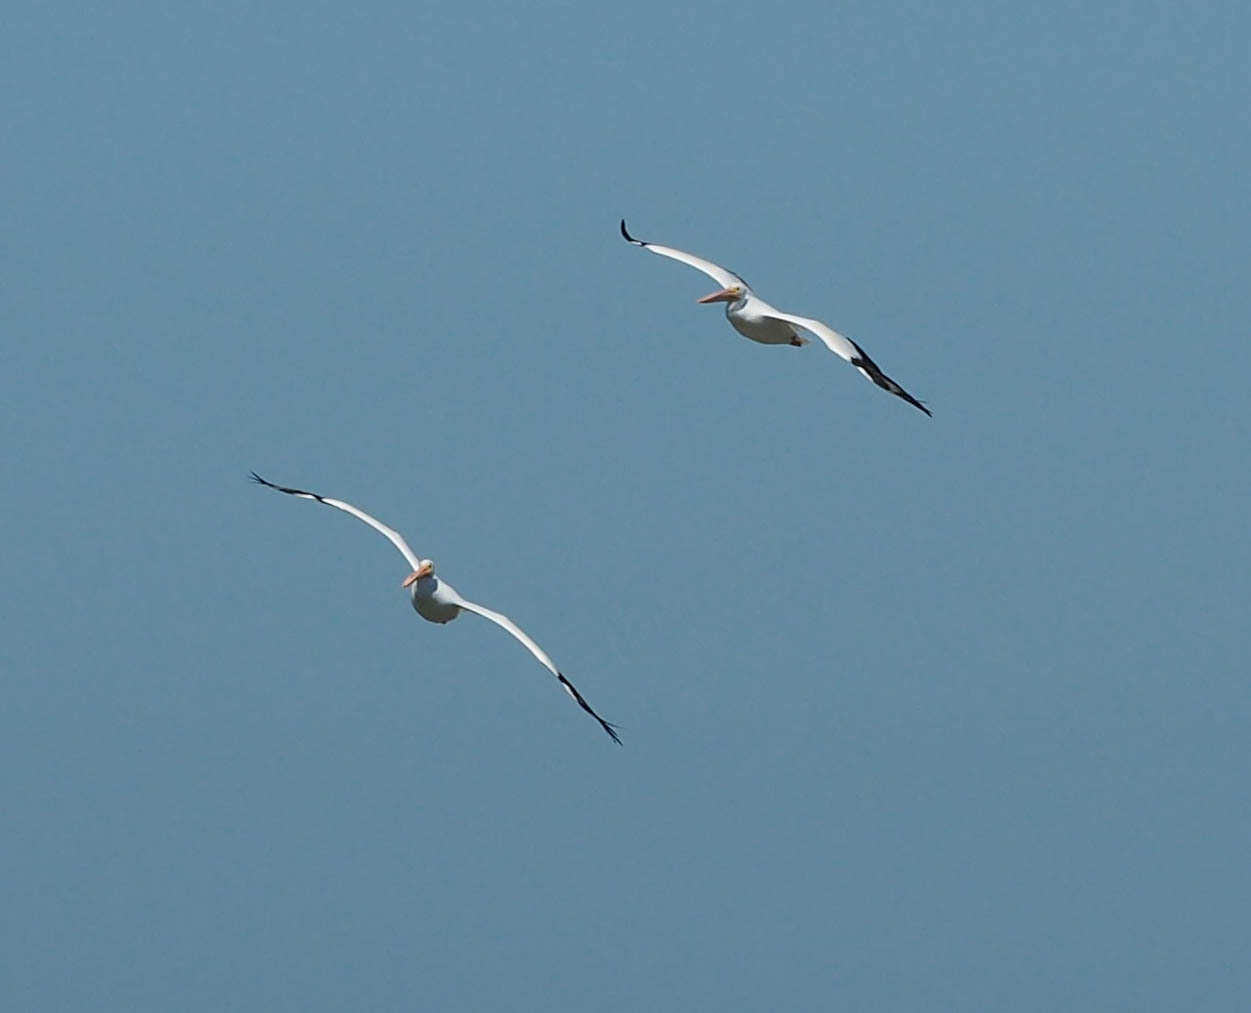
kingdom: Animalia
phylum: Chordata
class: Aves
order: Pelecaniformes
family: Pelecanidae
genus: Pelecanus
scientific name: Pelecanus erythrorhynchos
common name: American white pelican
